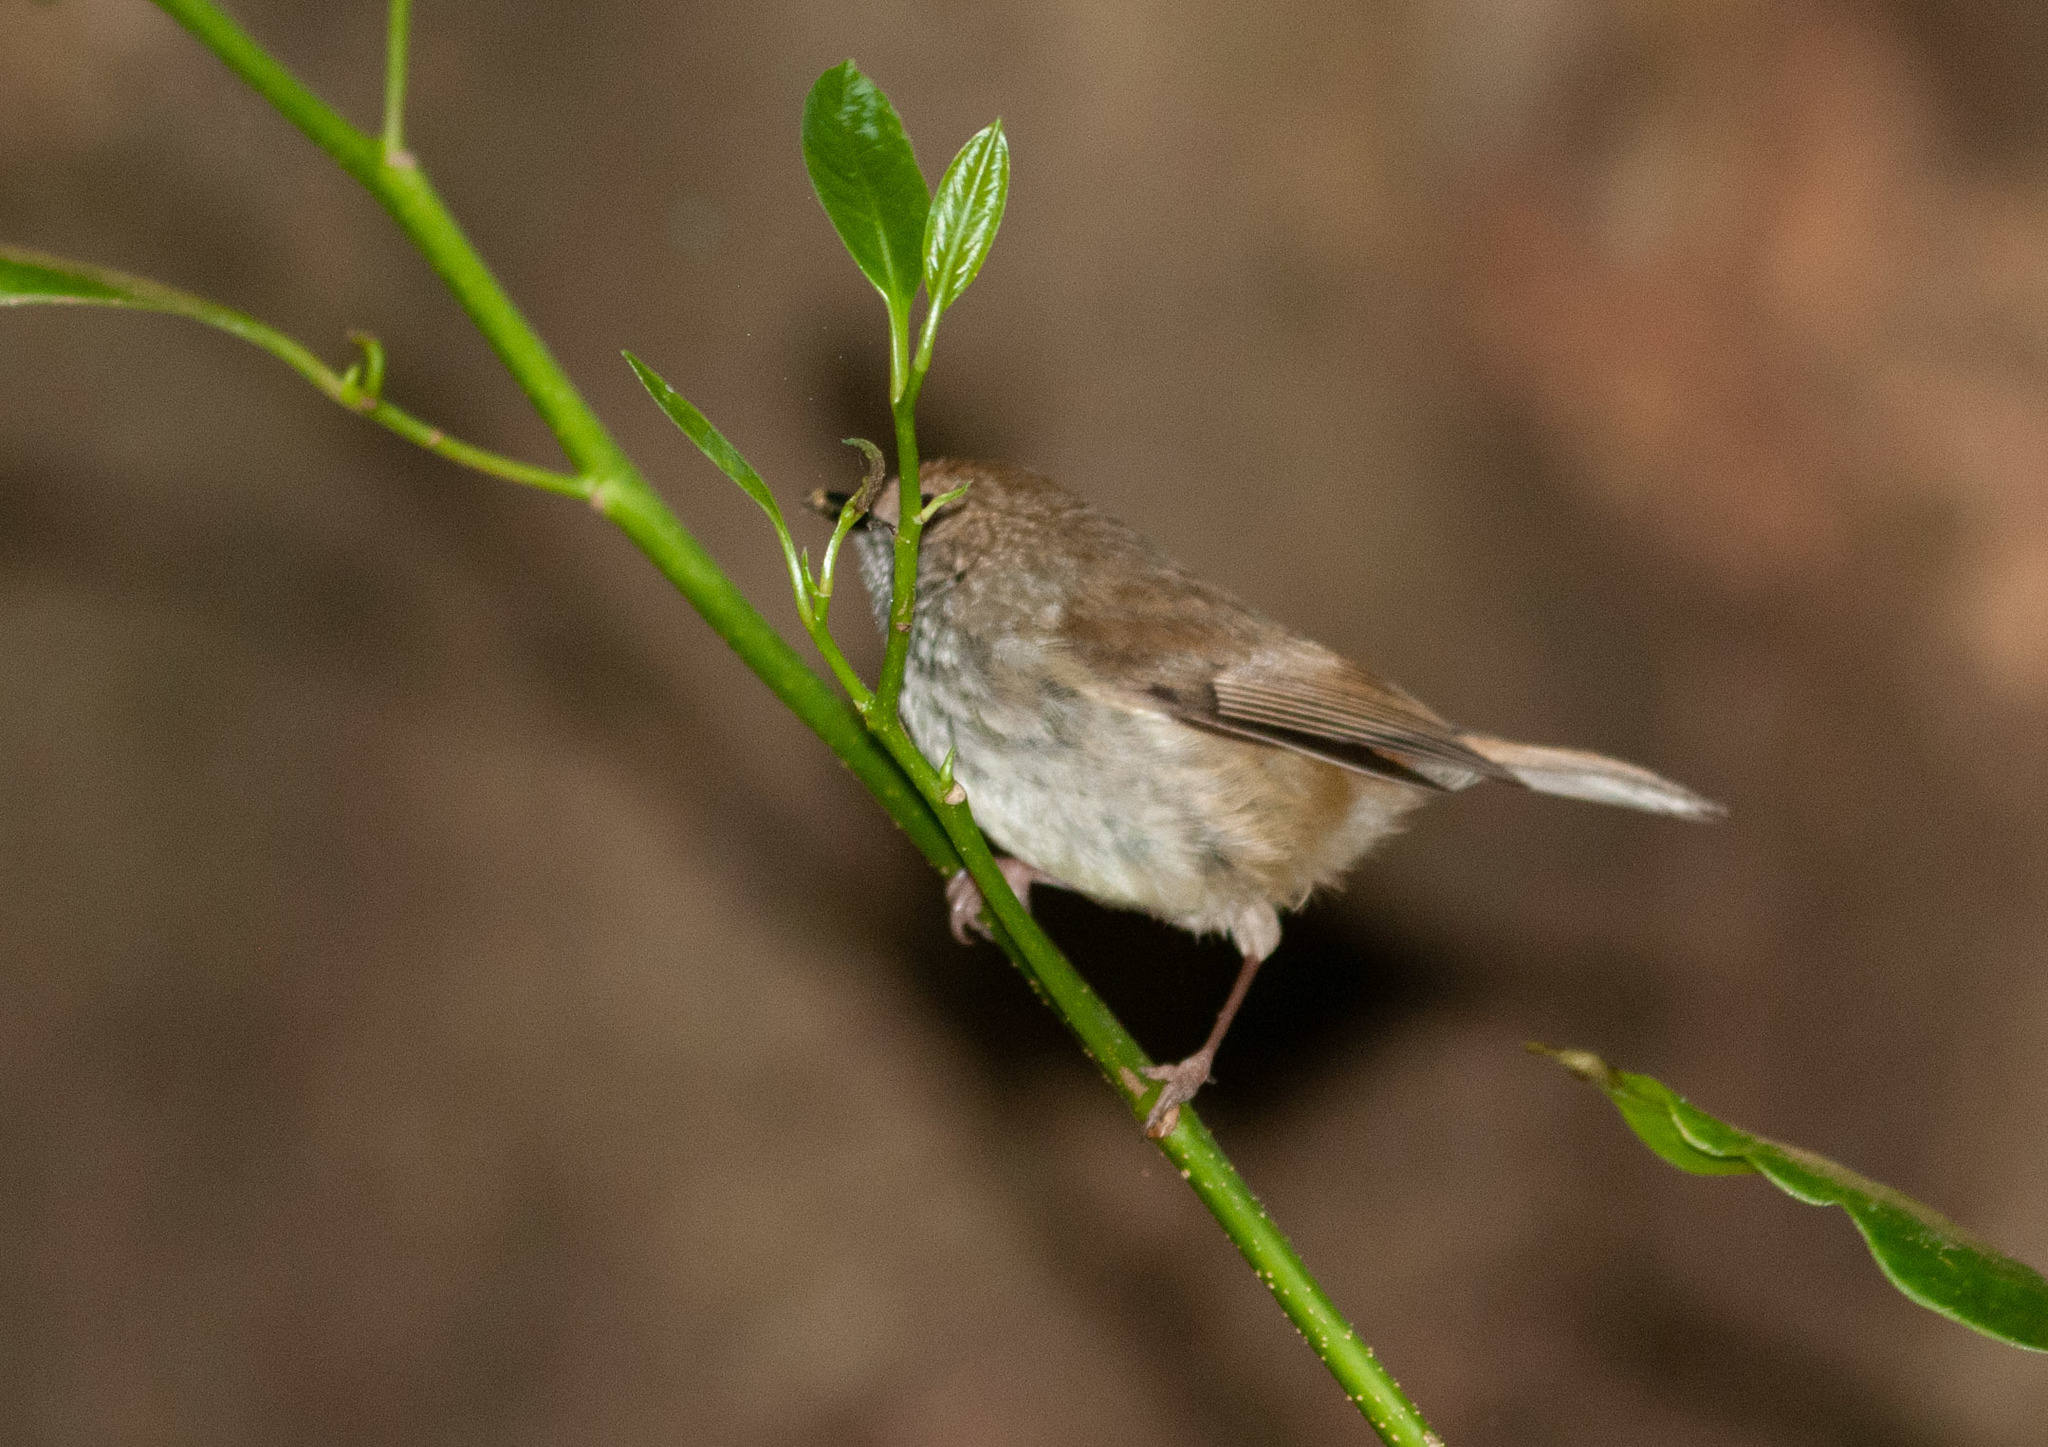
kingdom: Animalia
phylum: Chordata
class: Aves
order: Passeriformes
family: Acanthizidae
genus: Acanthiza
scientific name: Acanthiza pusilla
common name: Brown thornbill
